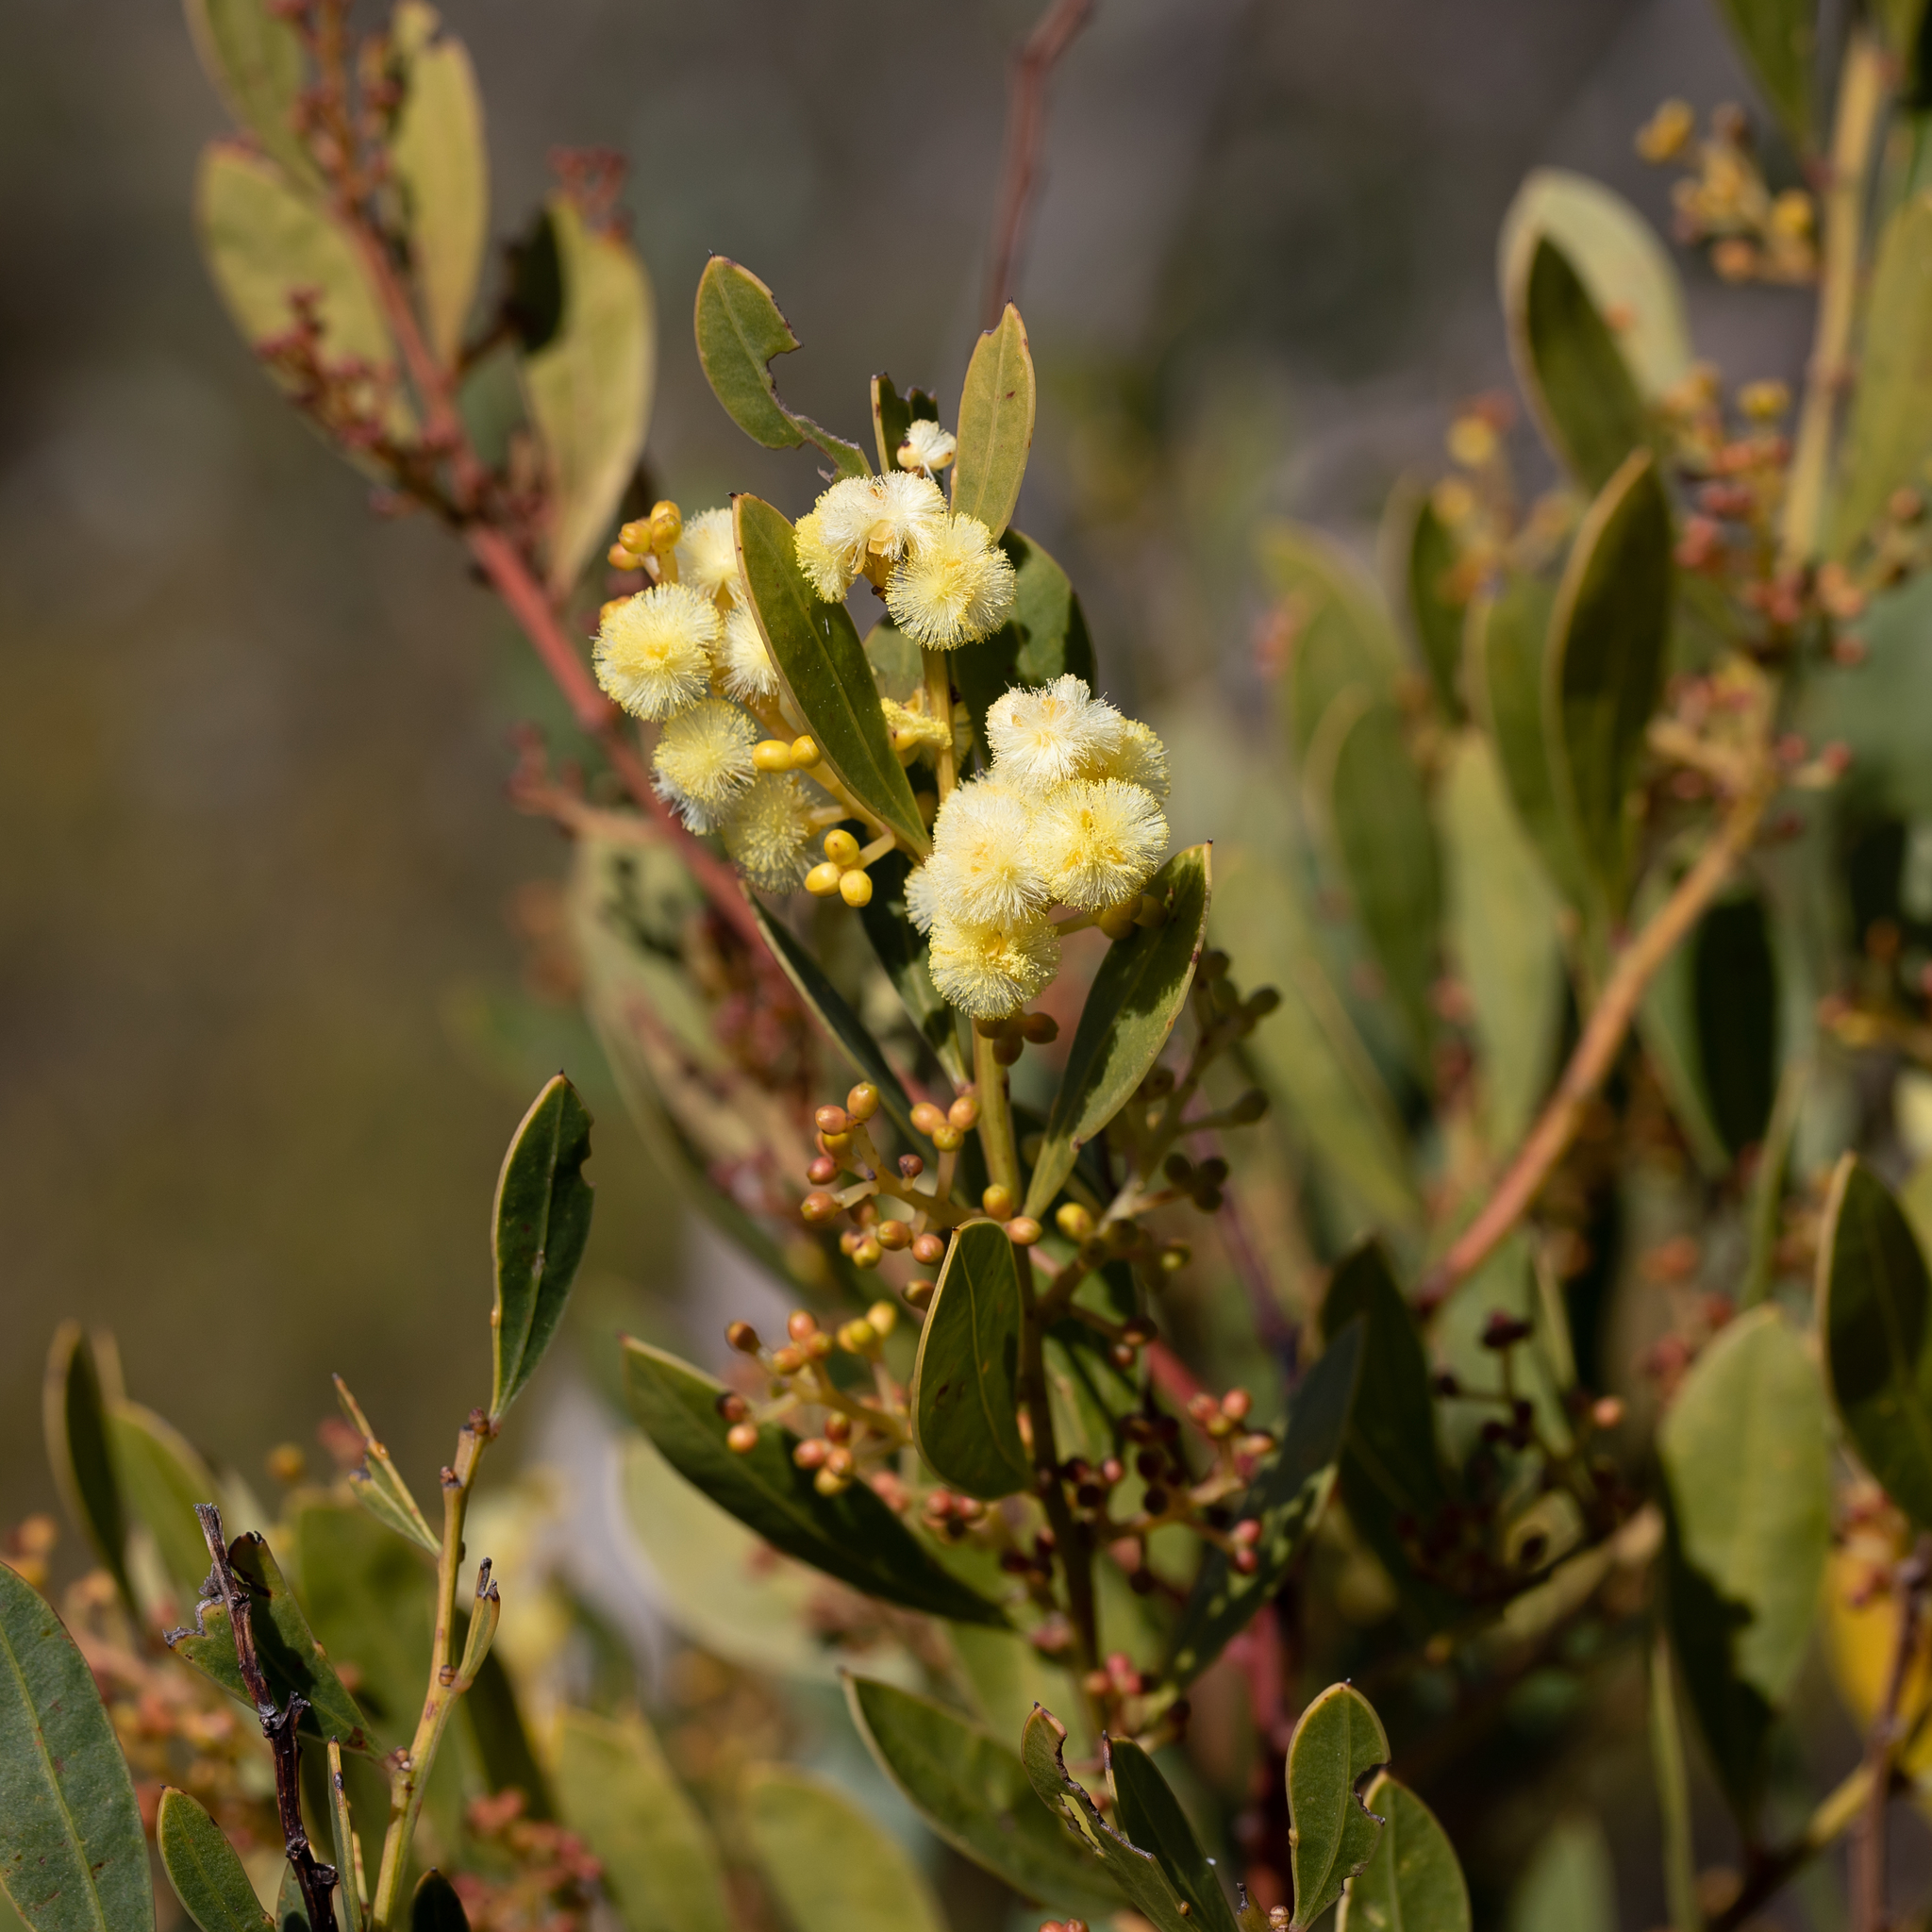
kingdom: Plantae
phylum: Tracheophyta
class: Magnoliopsida
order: Fabales
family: Fabaceae
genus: Acacia
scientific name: Acacia myrtifolia
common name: Myrtle wattle
